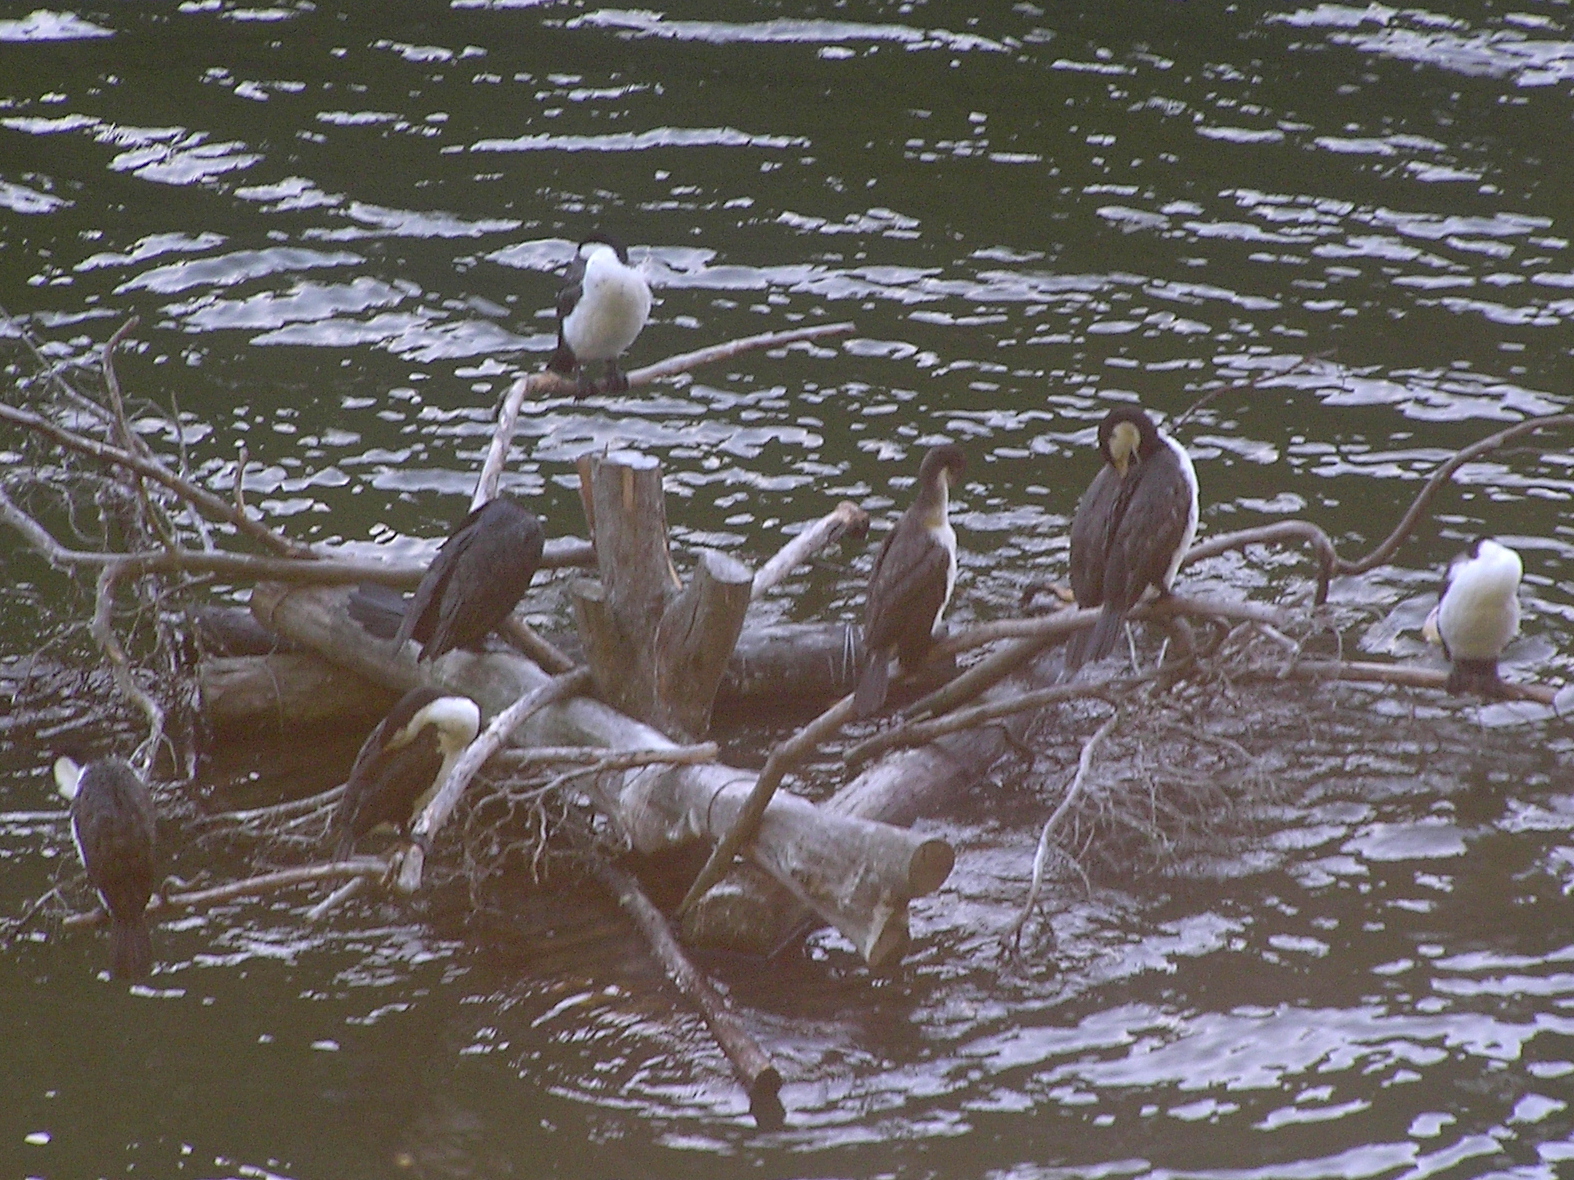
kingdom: Animalia
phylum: Chordata
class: Aves
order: Suliformes
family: Phalacrocoracidae
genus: Phalacrocorax
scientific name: Phalacrocorax varius
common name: Pied cormorant
